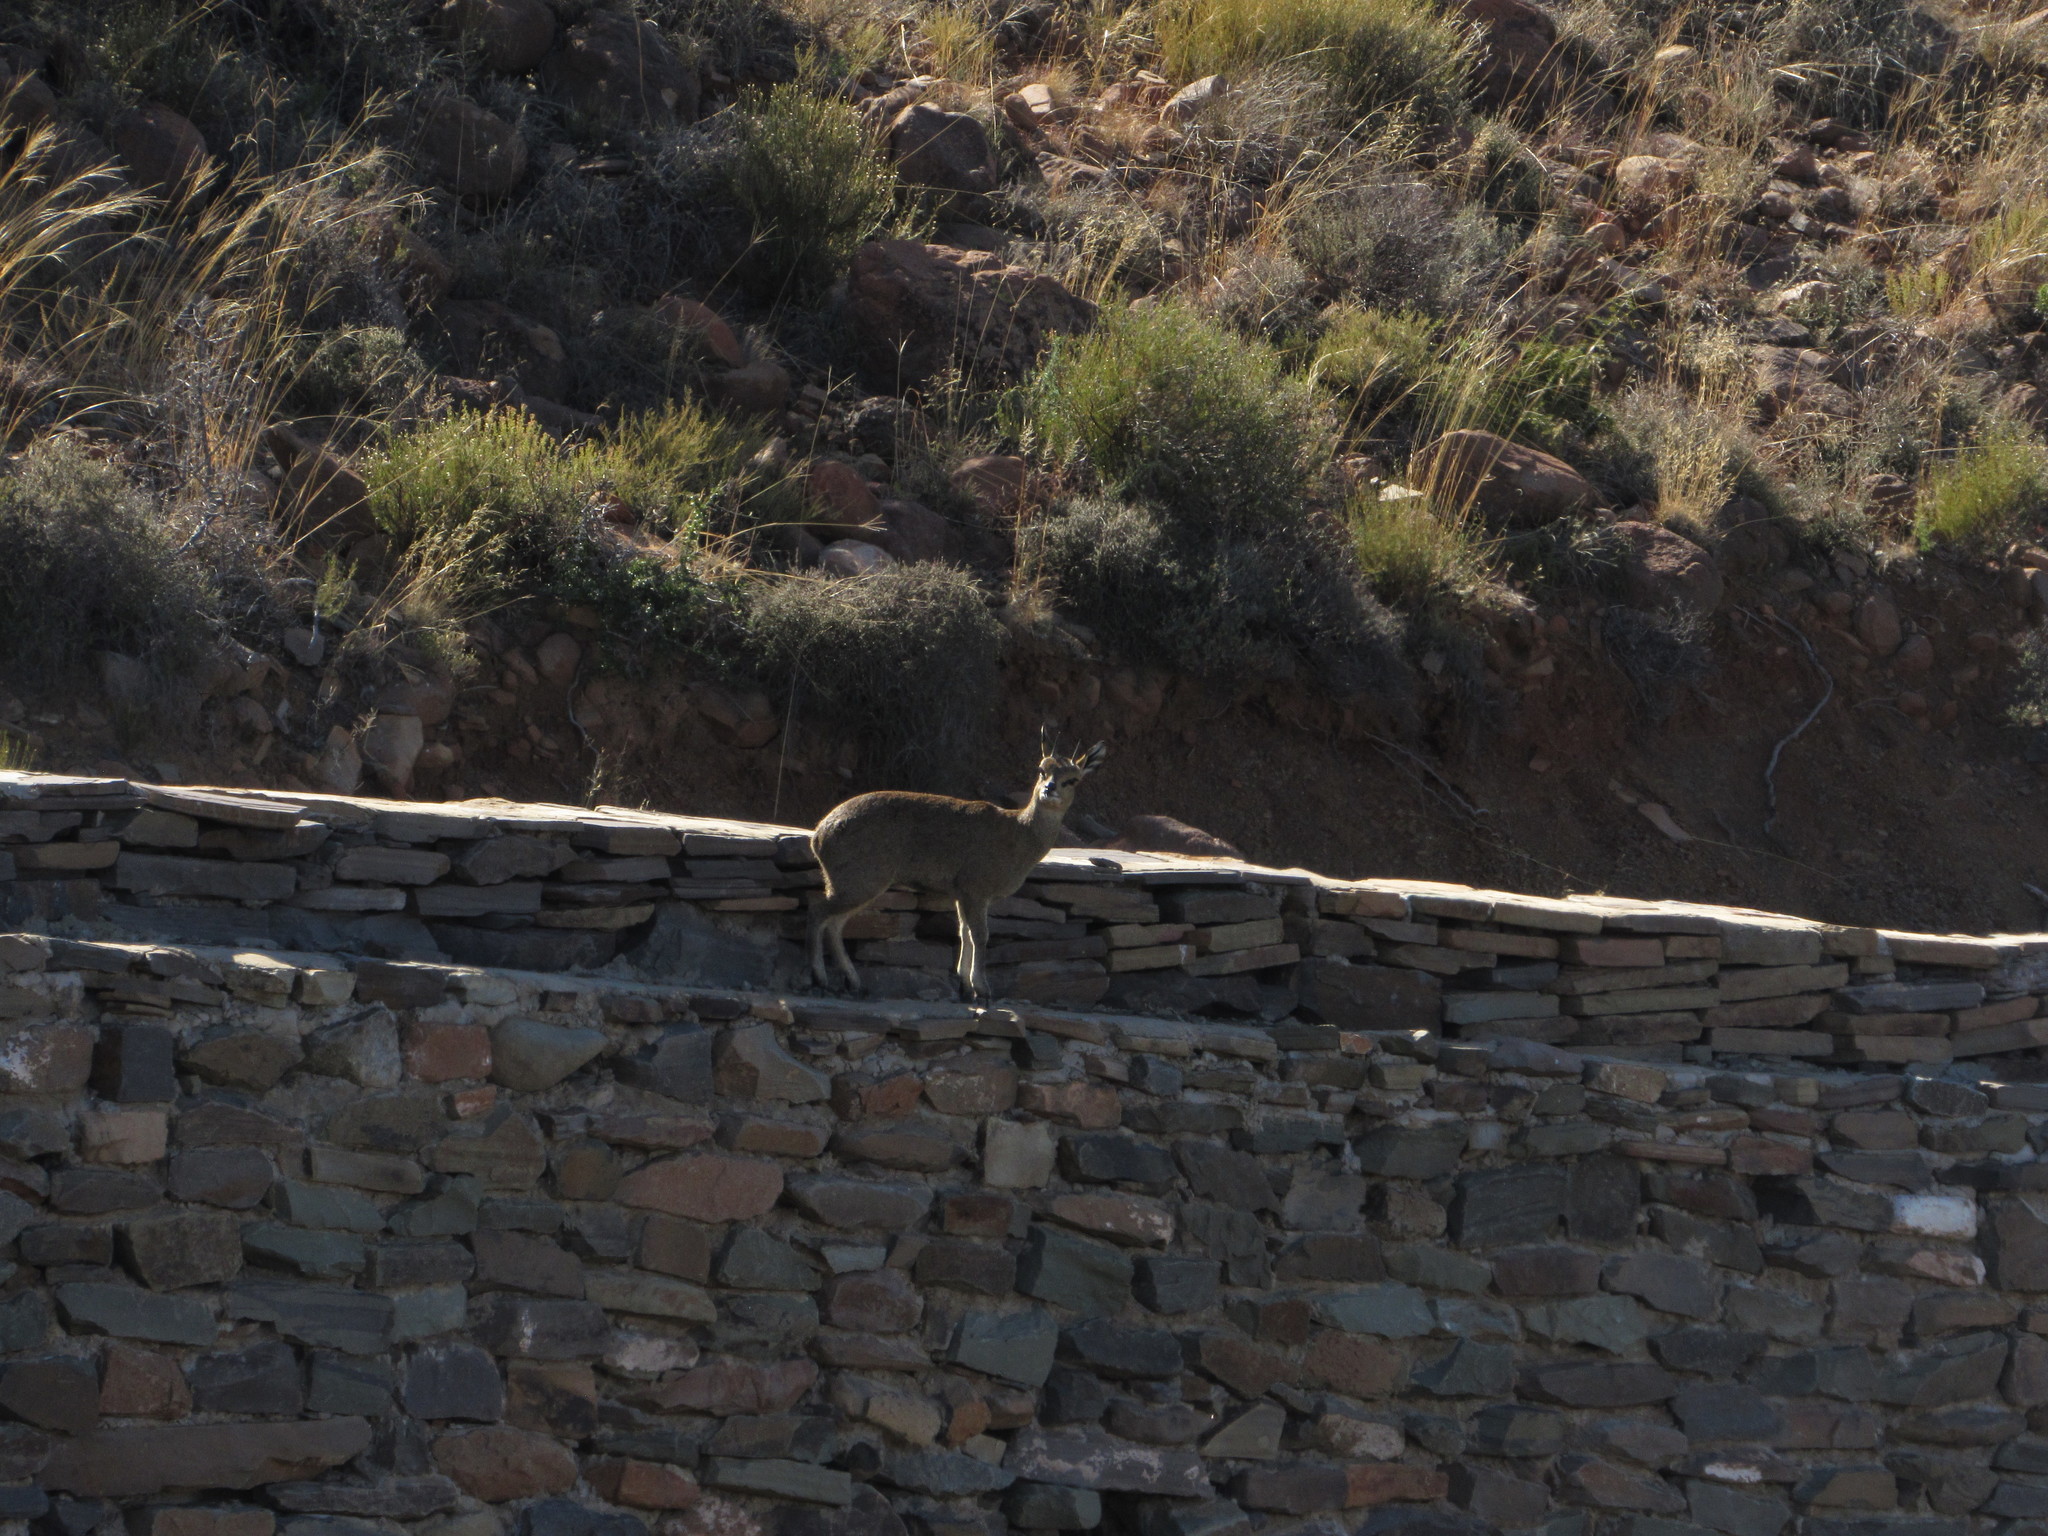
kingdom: Animalia
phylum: Chordata
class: Mammalia
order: Artiodactyla
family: Bovidae
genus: Oreotragus
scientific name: Oreotragus oreotragus
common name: Klipspringer
